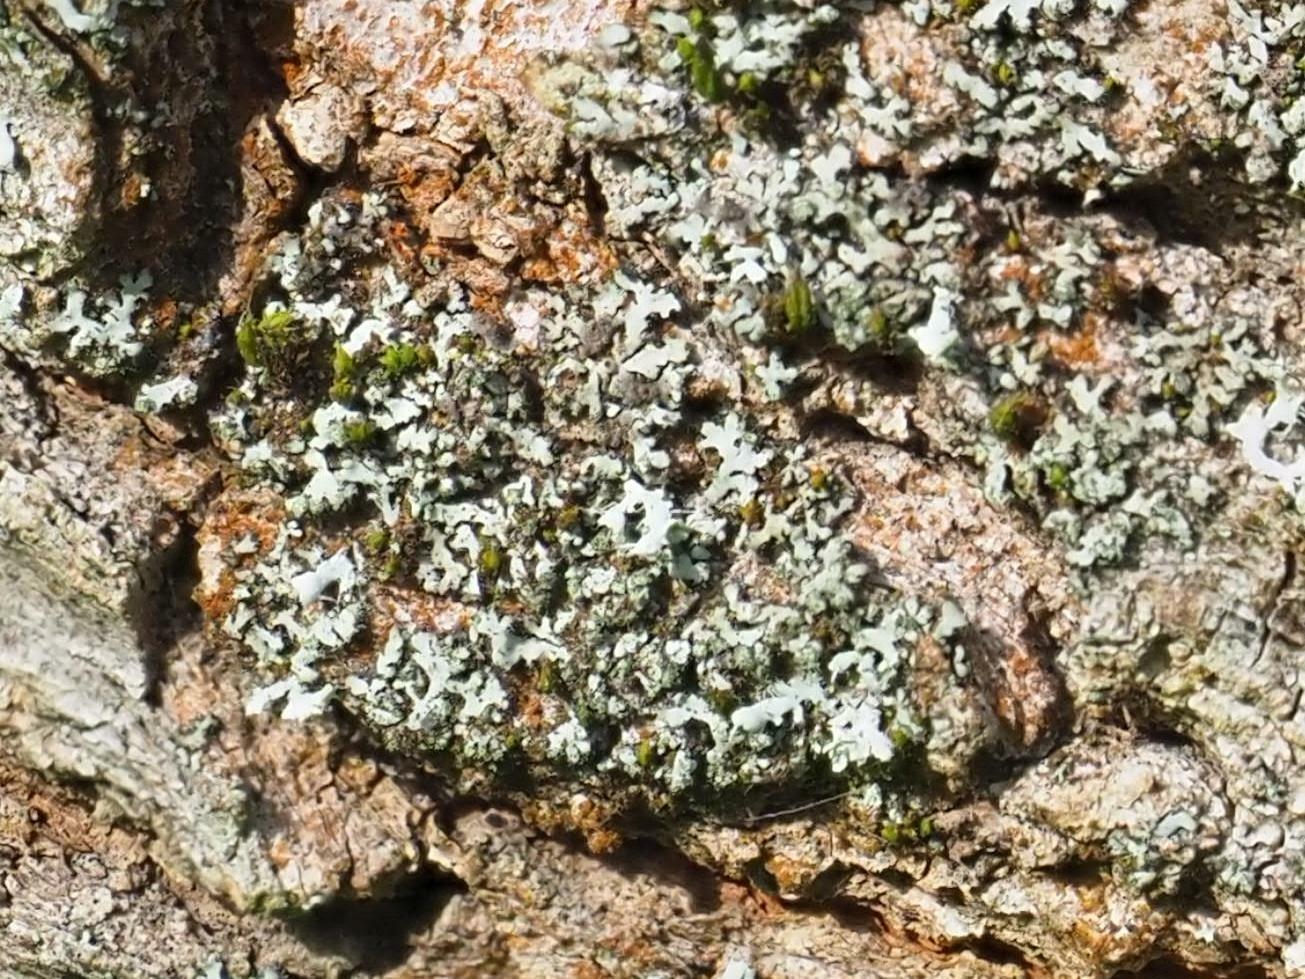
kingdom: Fungi
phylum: Ascomycota
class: Lecanoromycetes
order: Caliciales
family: Physciaceae
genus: Phaeophyscia
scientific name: Phaeophyscia orbicularis
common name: Mealy shadow lichen
